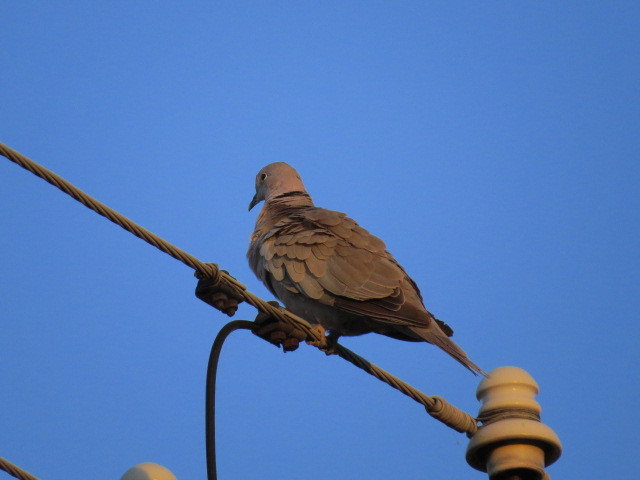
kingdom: Animalia
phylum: Chordata
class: Aves
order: Columbiformes
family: Columbidae
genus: Streptopelia
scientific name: Streptopelia decaocto
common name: Eurasian collared dove
